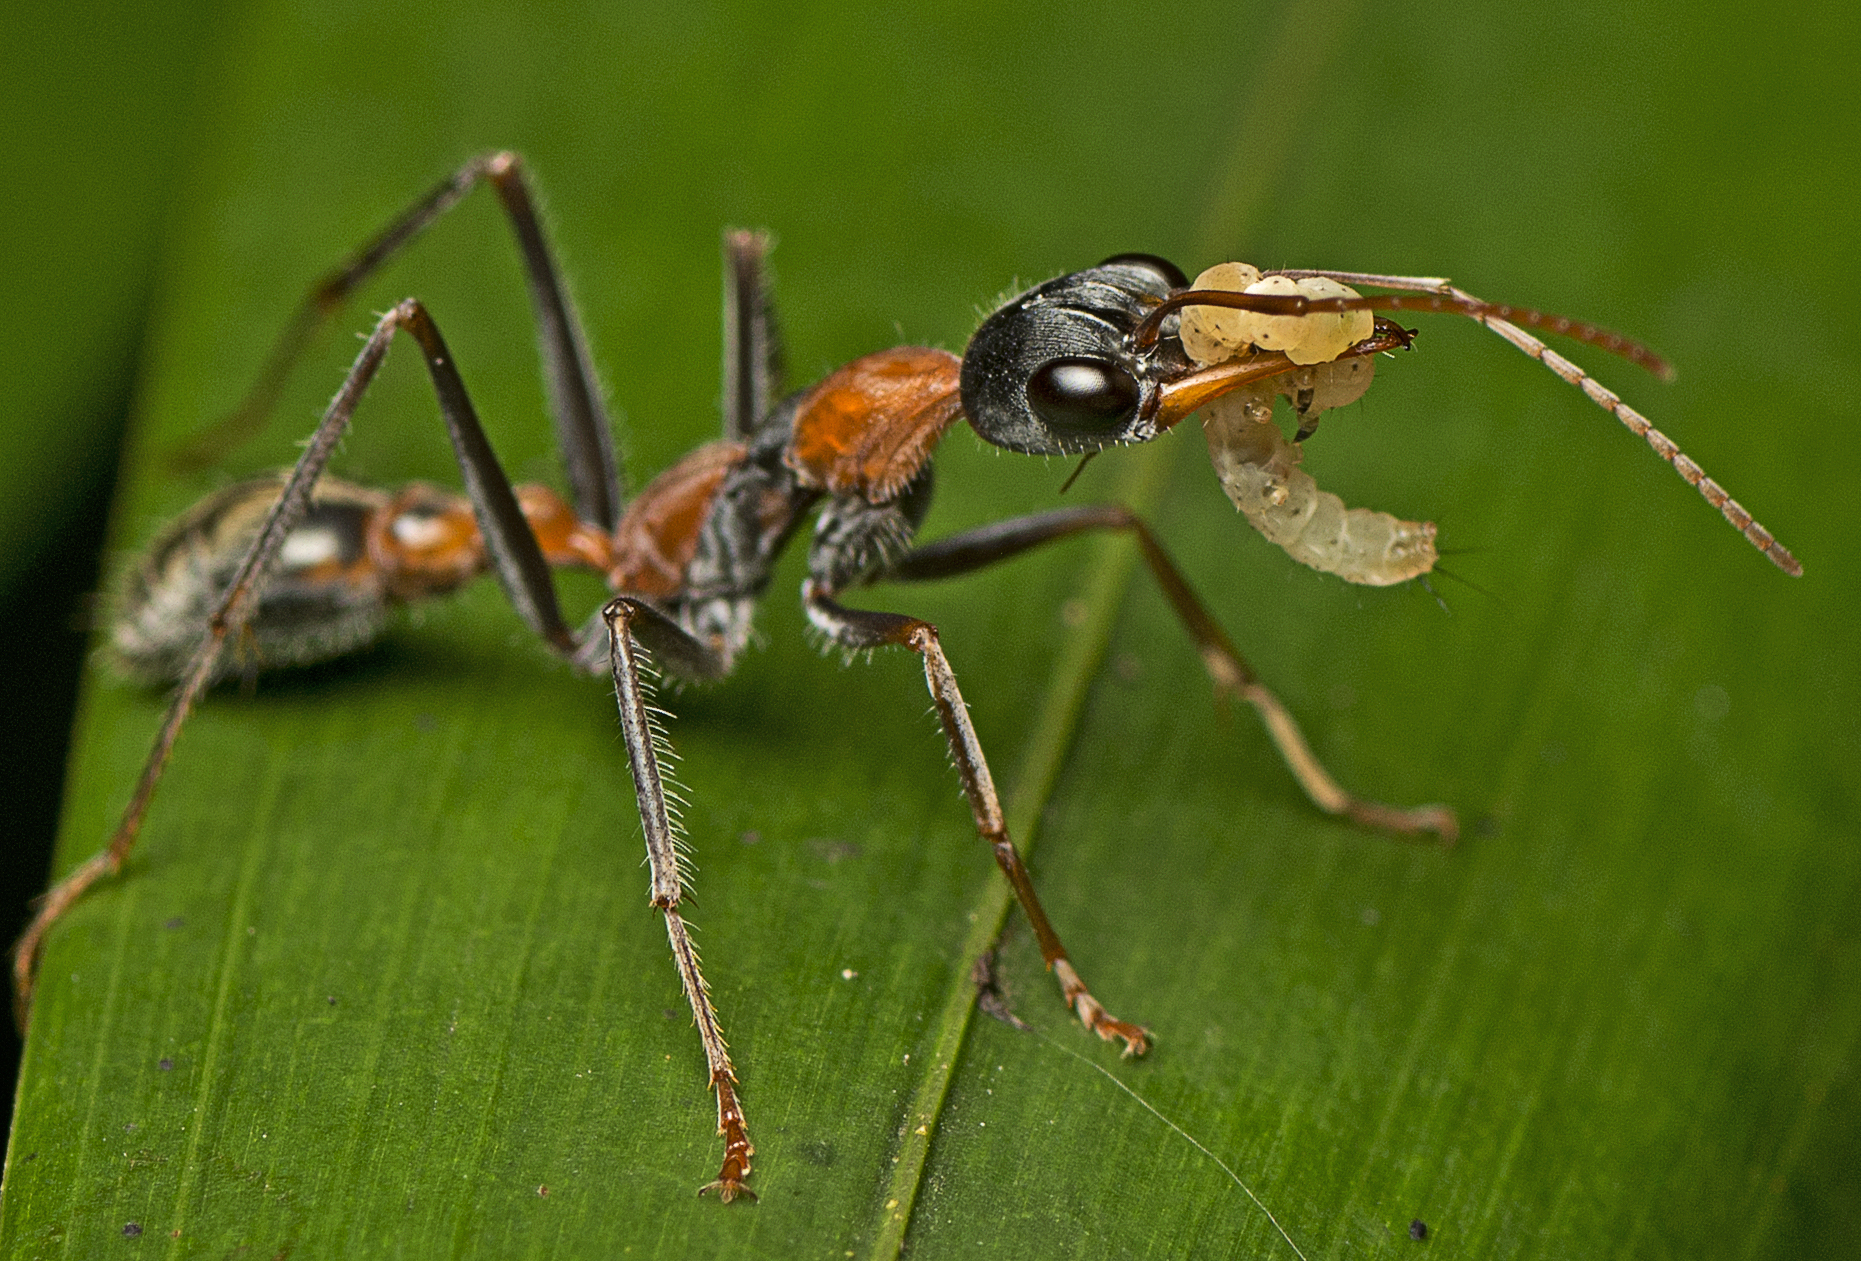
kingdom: Animalia
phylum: Arthropoda
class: Insecta
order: Hymenoptera
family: Formicidae
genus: Myrmecia
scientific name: Myrmecia nigrocincta
